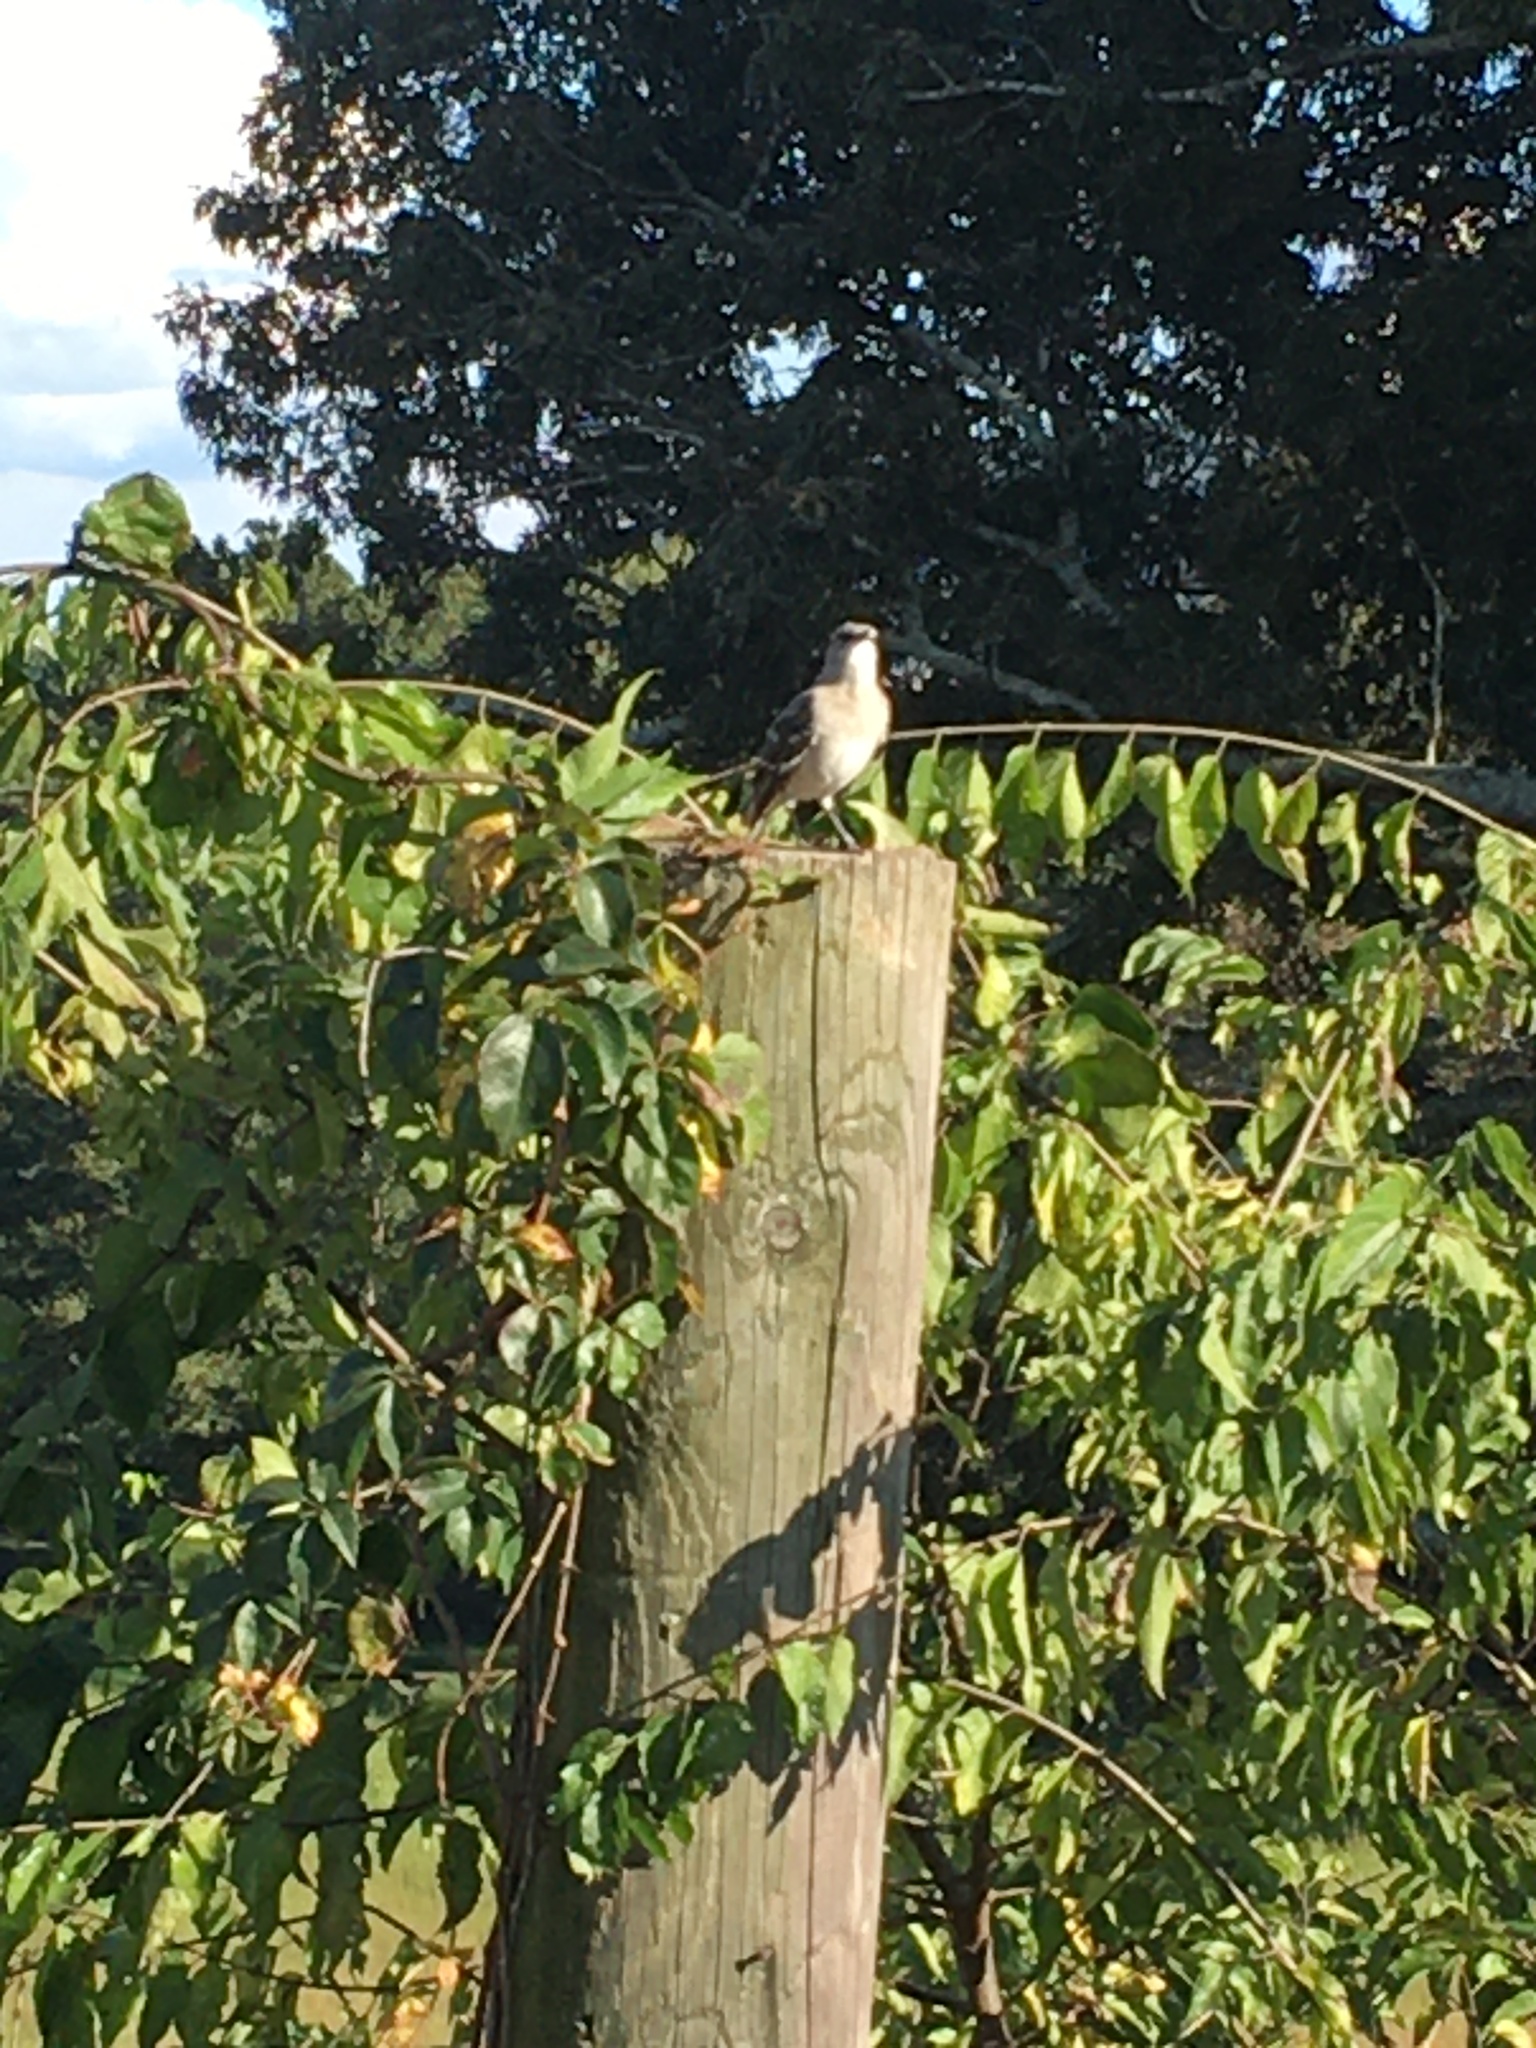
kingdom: Animalia
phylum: Chordata
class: Aves
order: Passeriformes
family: Mimidae
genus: Mimus
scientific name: Mimus polyglottos
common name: Northern mockingbird
